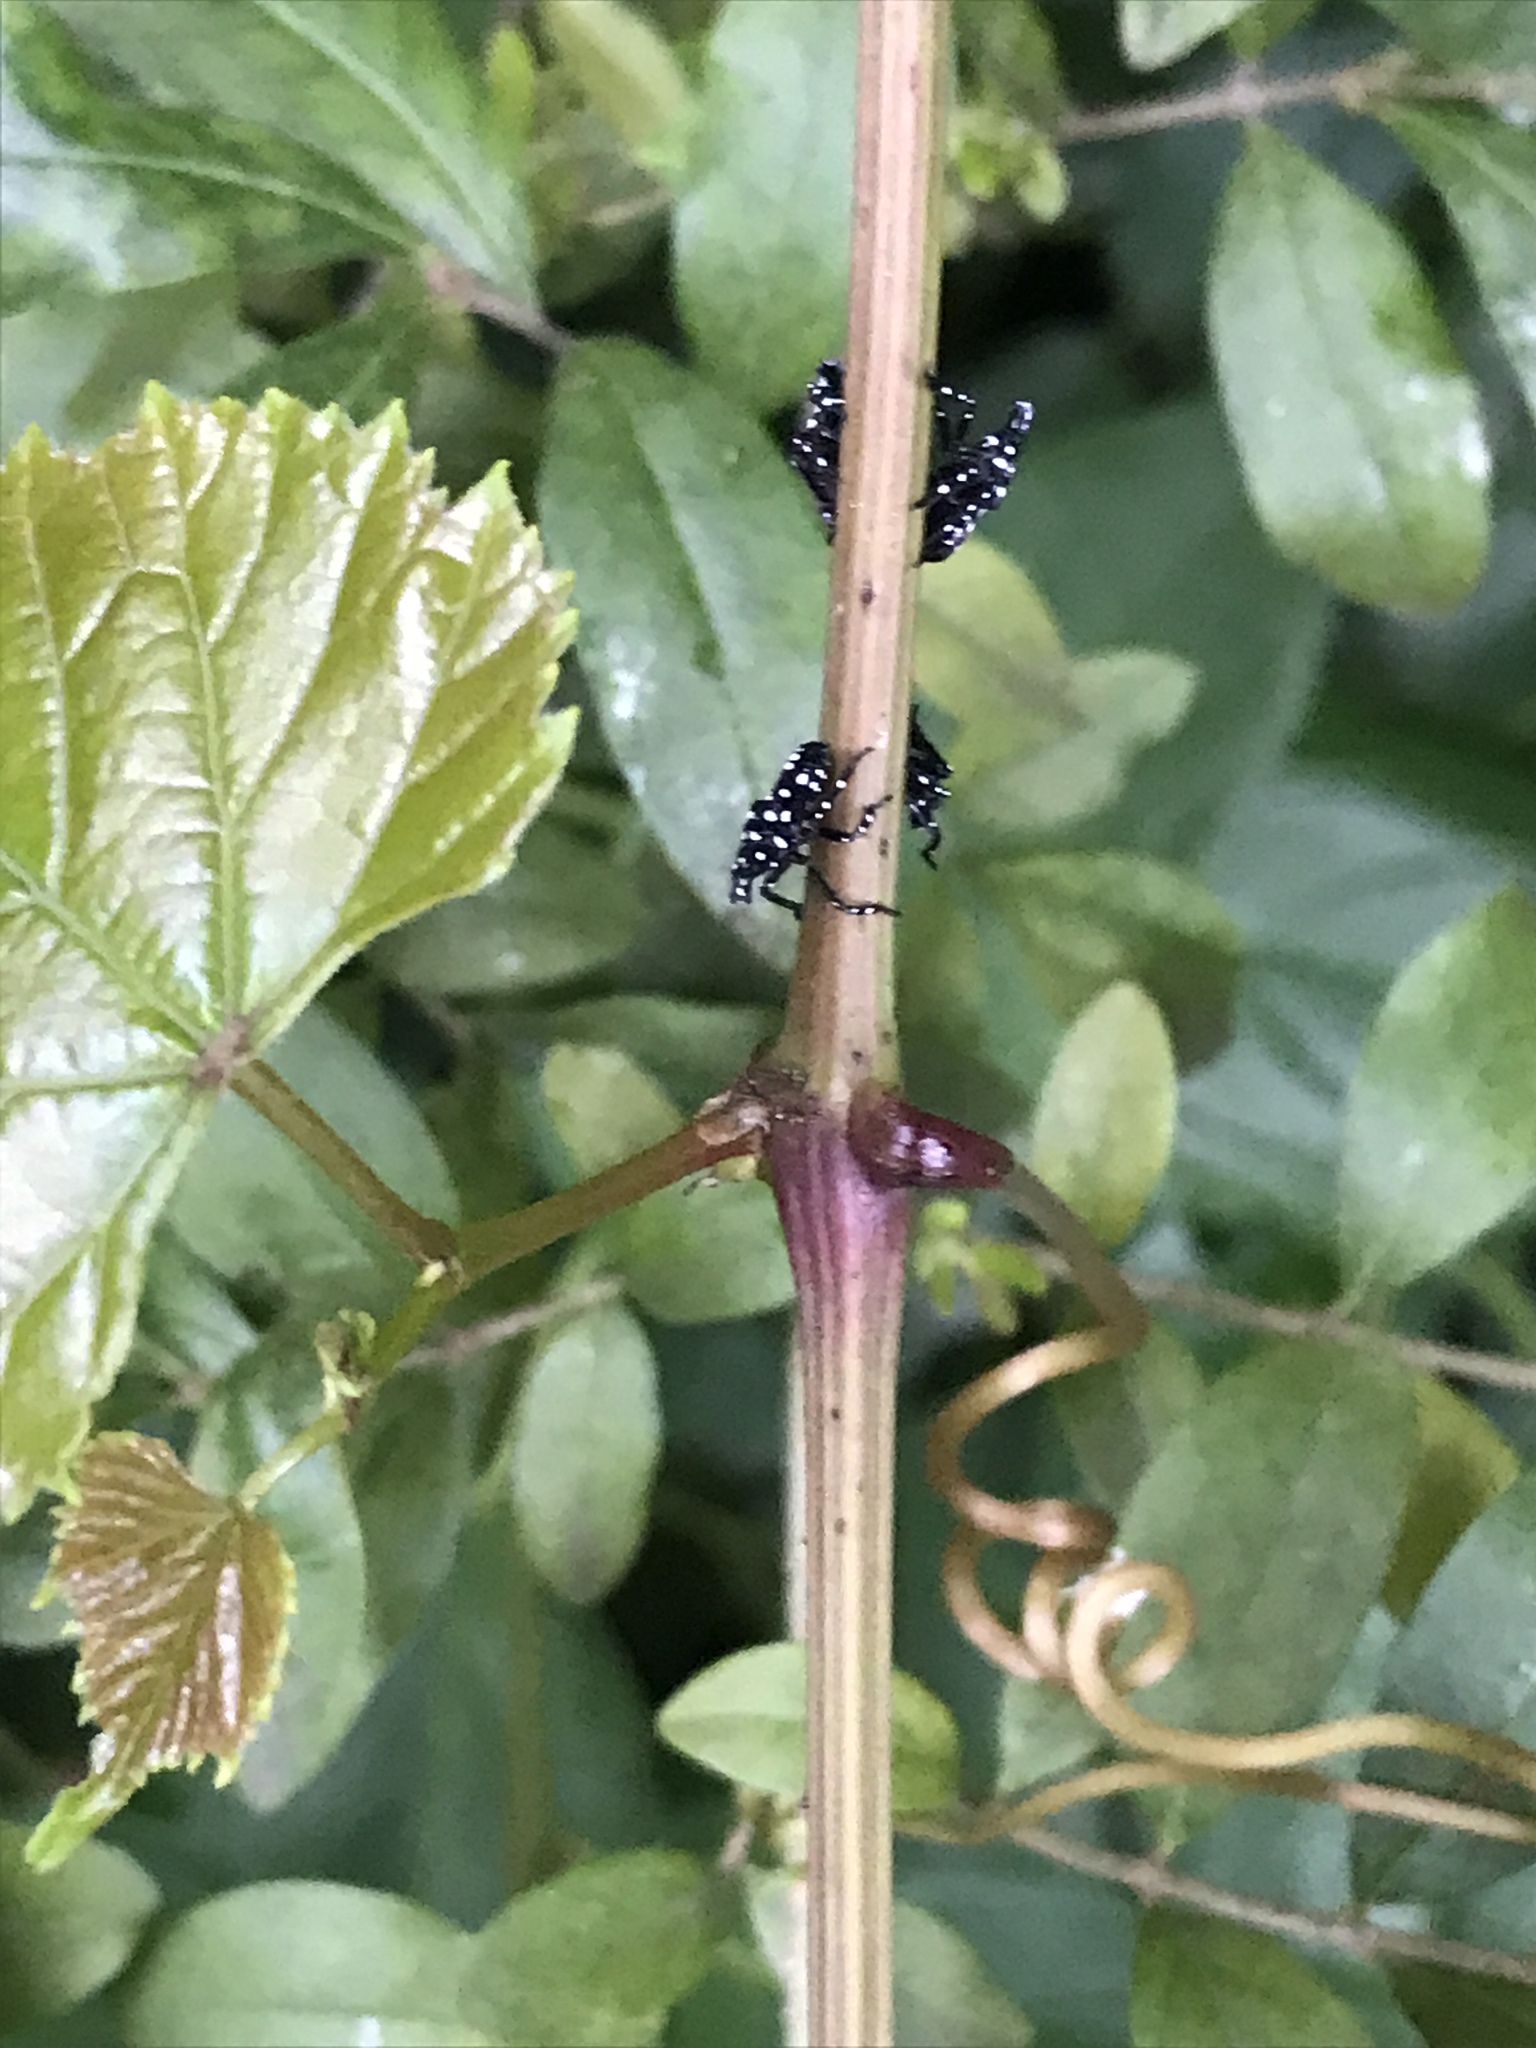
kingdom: Animalia
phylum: Arthropoda
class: Insecta
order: Hemiptera
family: Fulgoridae
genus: Lycorma
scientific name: Lycorma delicatula
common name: Spotted lanternfly
